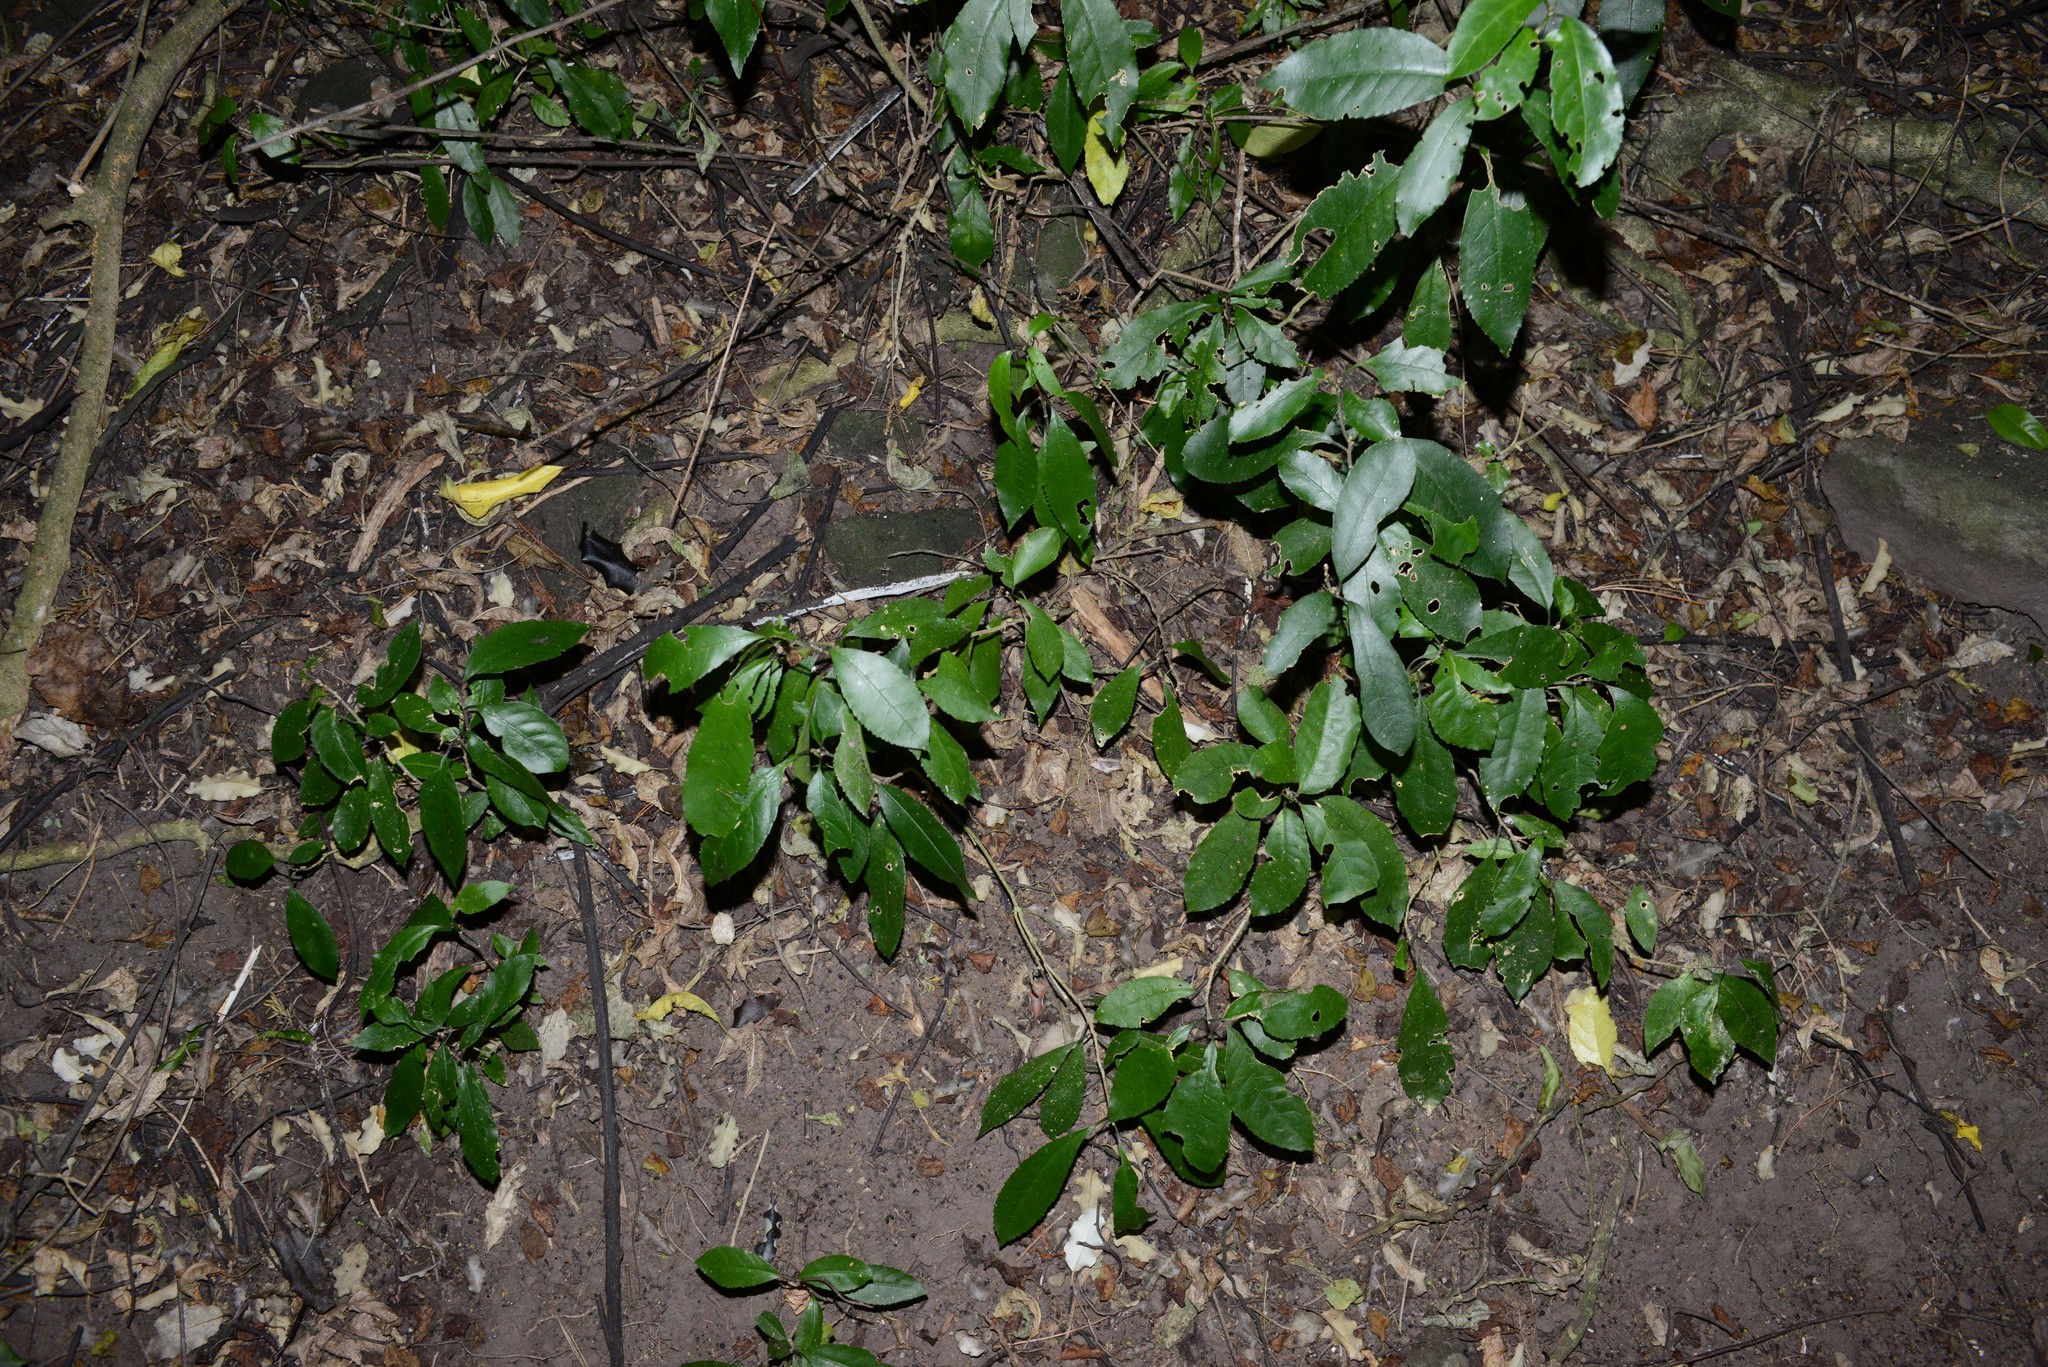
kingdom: Plantae
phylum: Tracheophyta
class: Magnoliopsida
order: Malpighiales
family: Violaceae
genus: Melicytus
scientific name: Melicytus ramiflorus
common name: Mahoe
